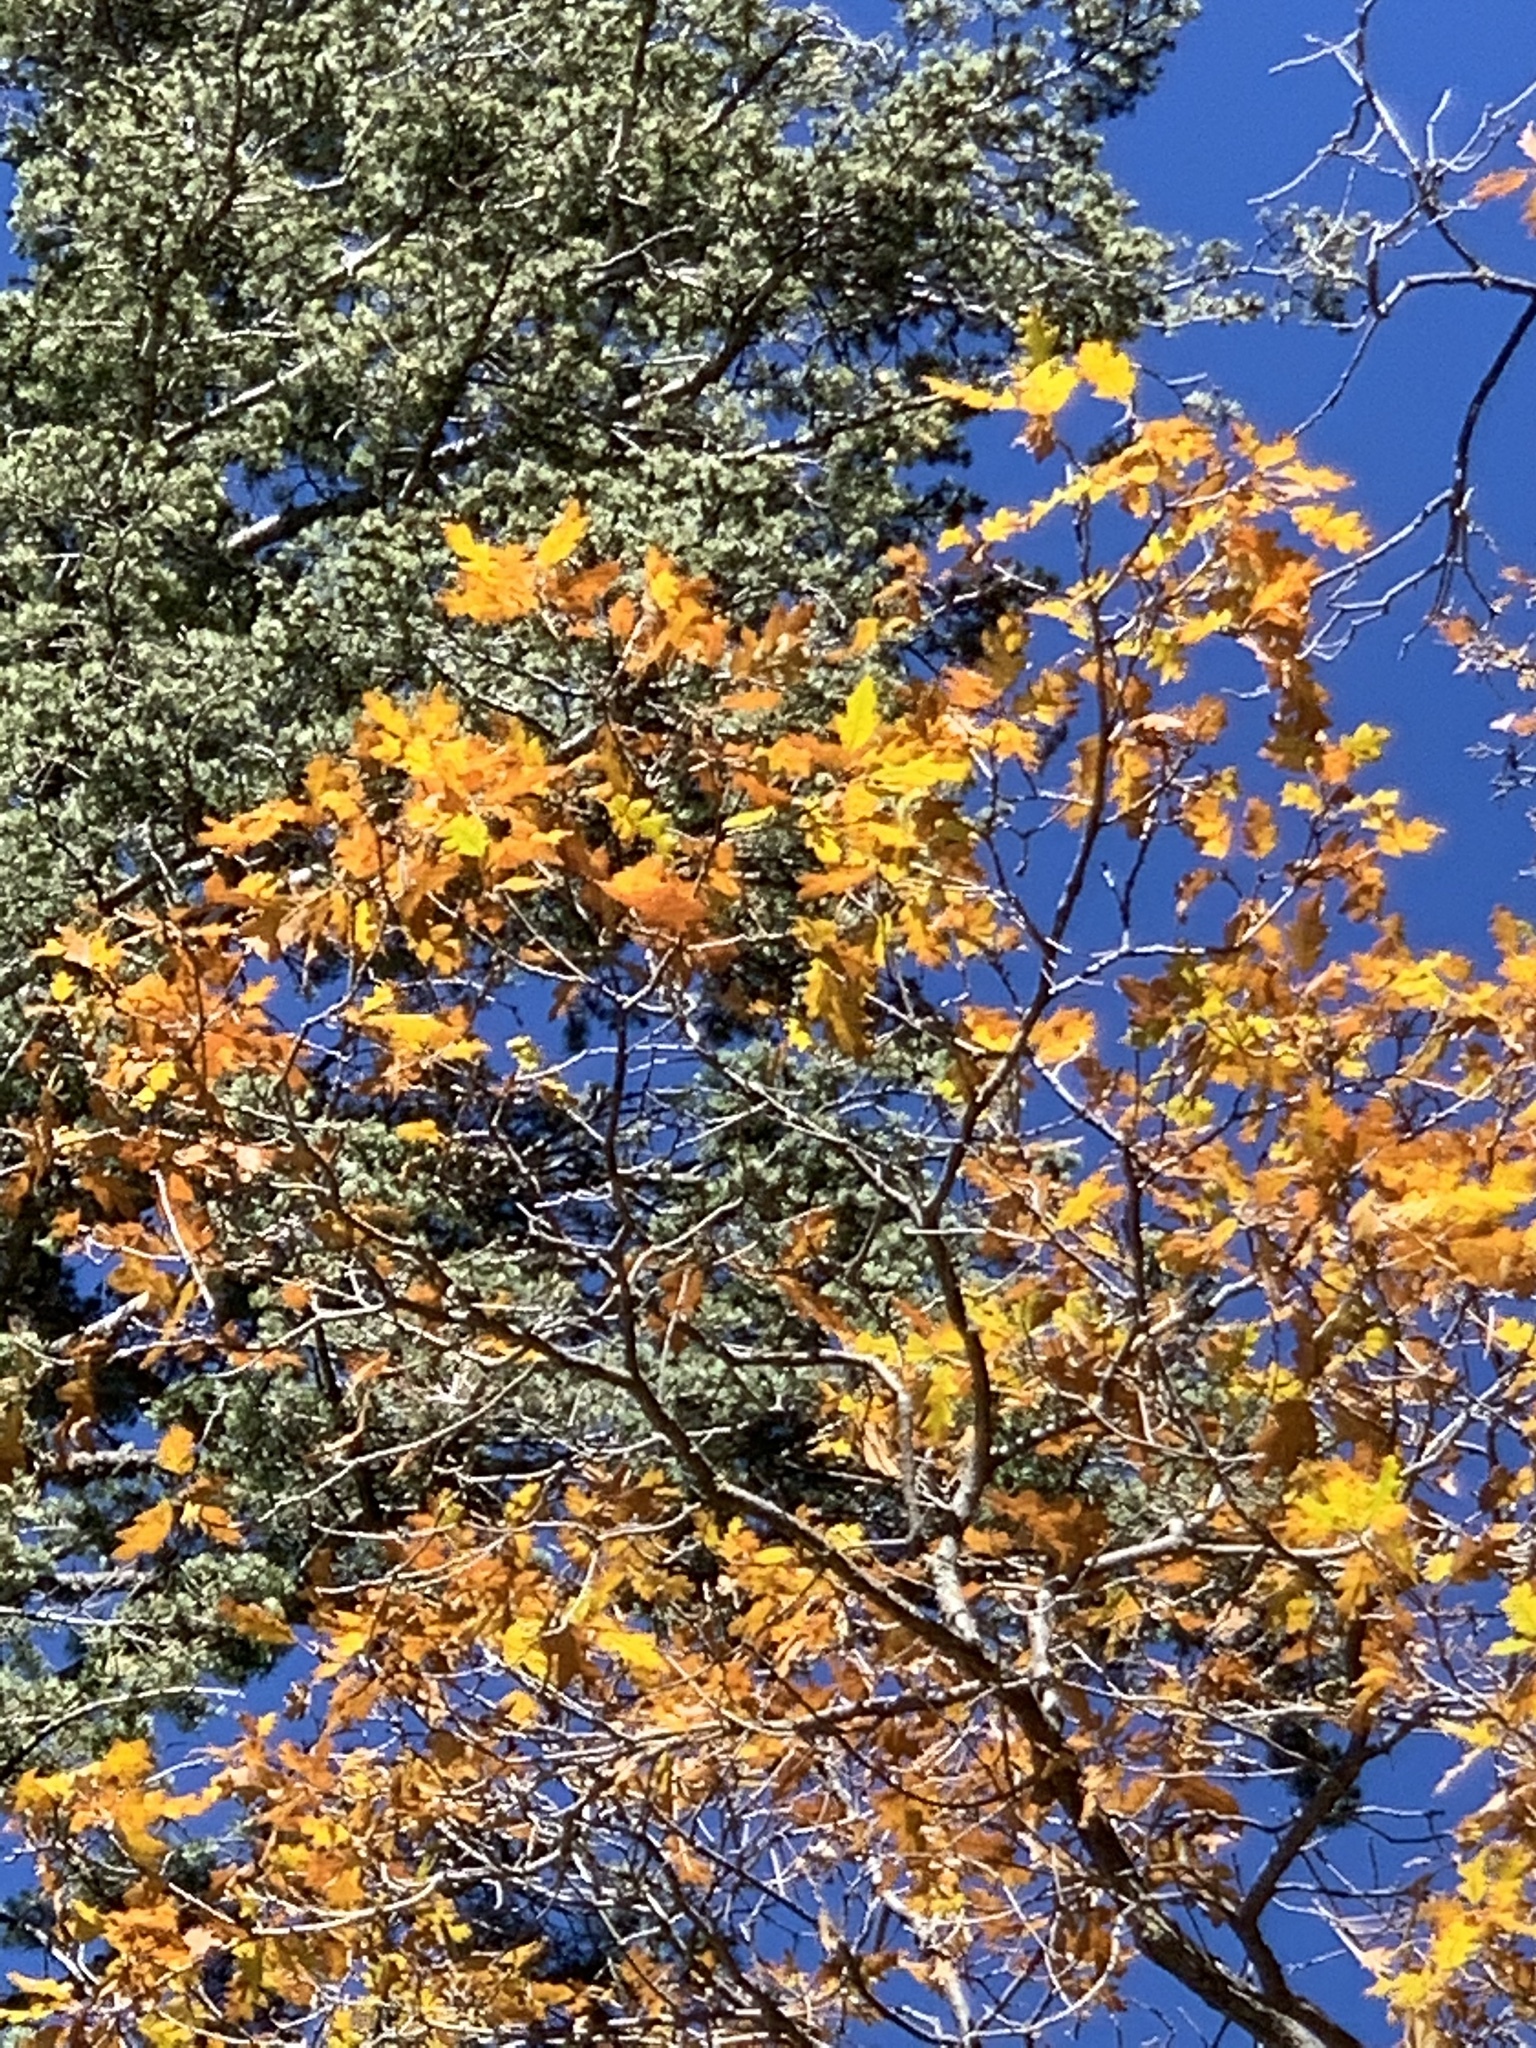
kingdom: Plantae
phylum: Tracheophyta
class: Magnoliopsida
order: Fagales
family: Fagaceae
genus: Quercus
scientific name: Quercus gambelii
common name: Gambel oak
